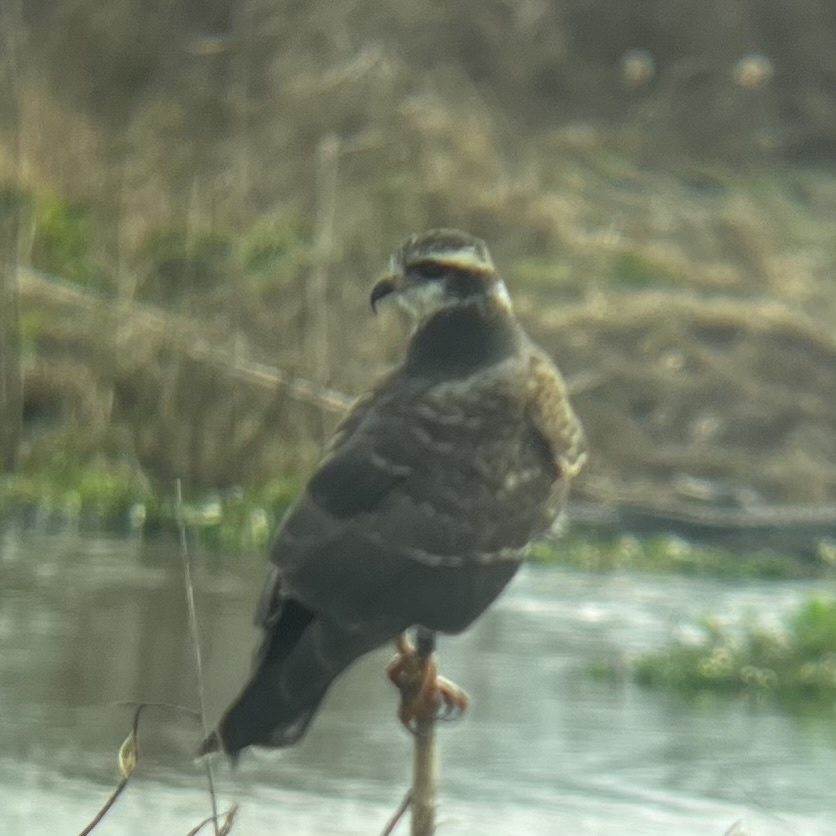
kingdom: Animalia
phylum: Chordata
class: Aves
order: Accipitriformes
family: Accipitridae
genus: Rostrhamus
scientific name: Rostrhamus sociabilis
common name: Snail kite
